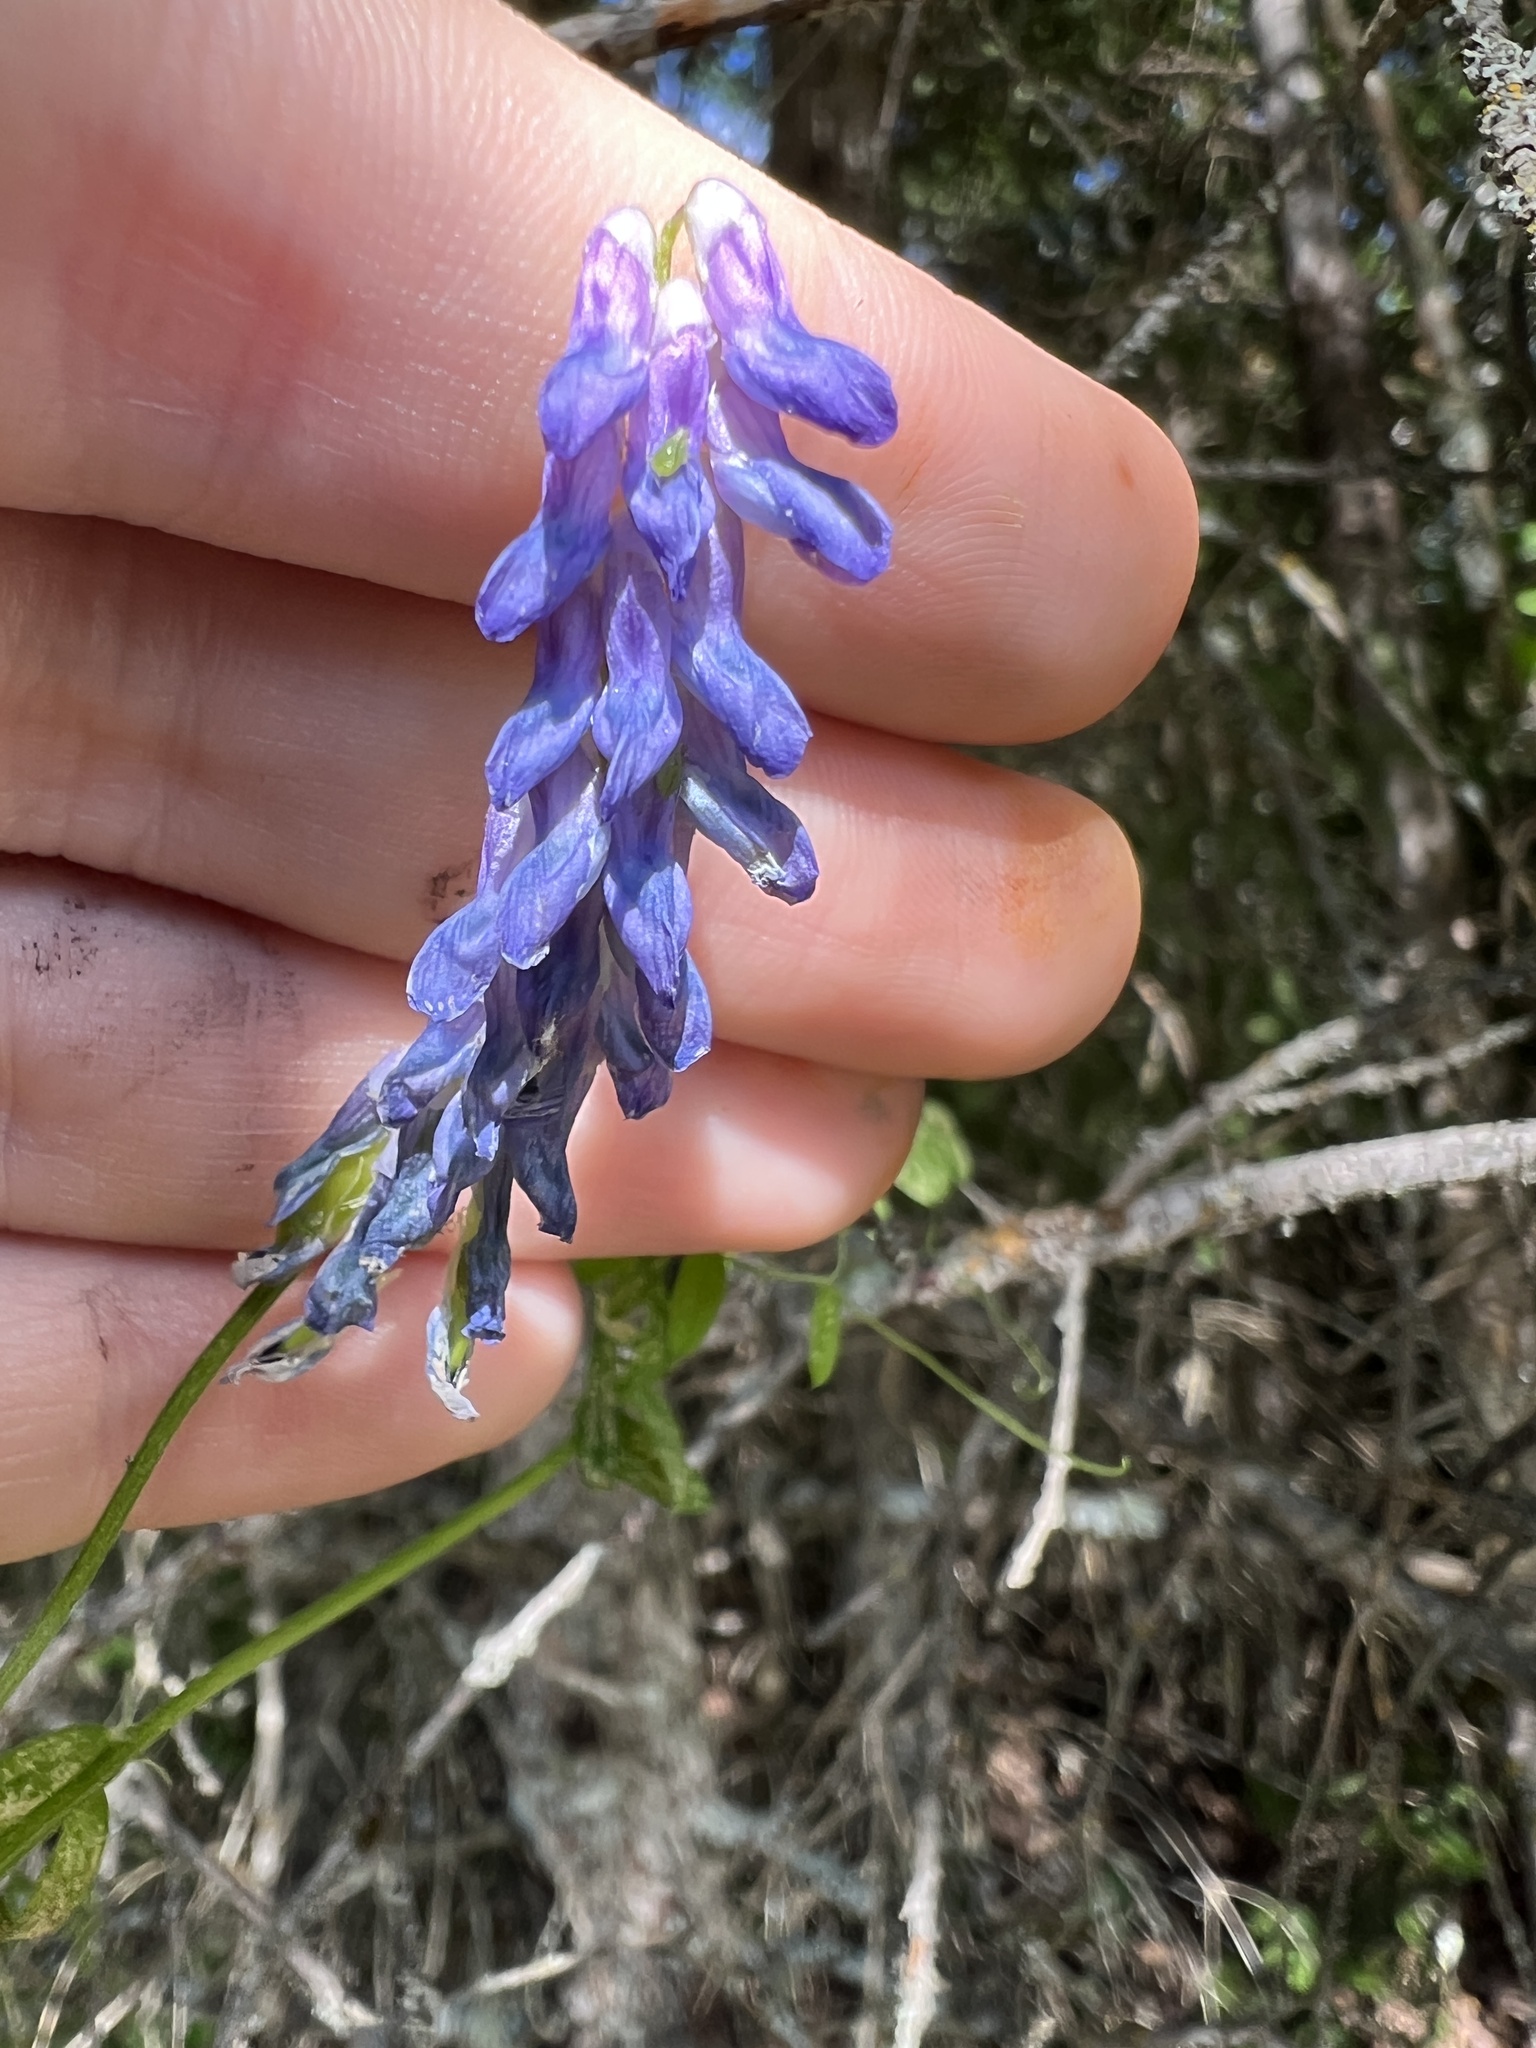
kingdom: Plantae
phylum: Tracheophyta
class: Magnoliopsida
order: Fabales
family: Fabaceae
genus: Vicia
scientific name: Vicia cracca
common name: Bird vetch
